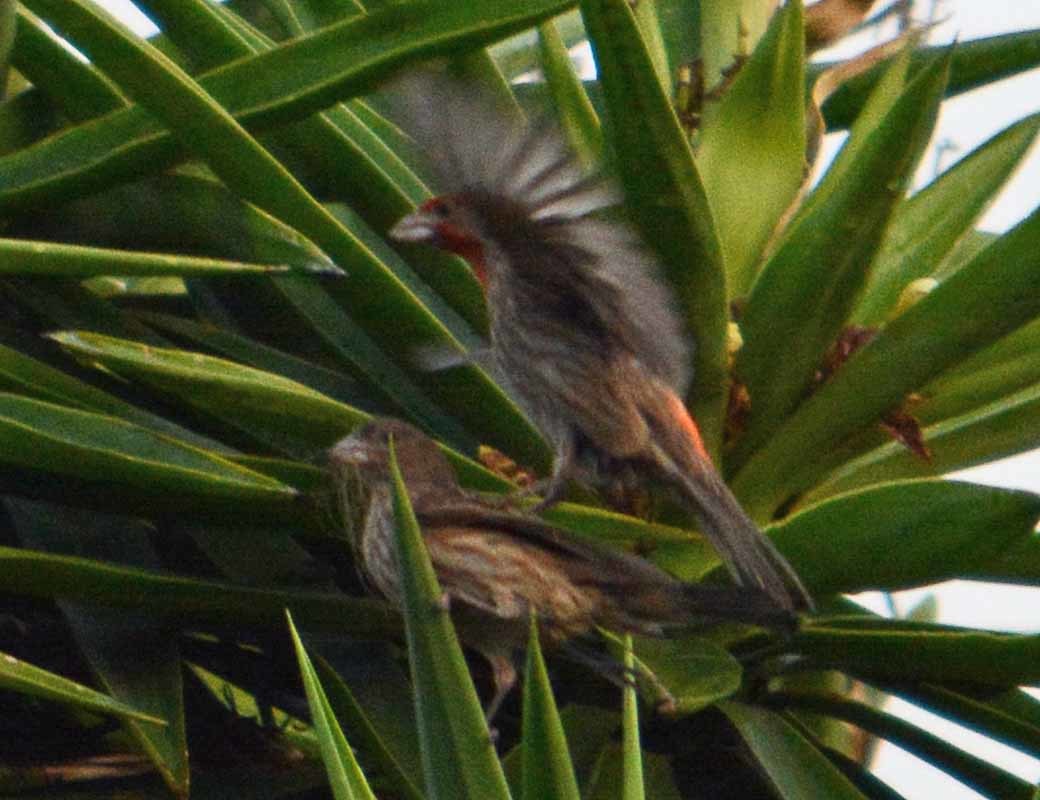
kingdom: Animalia
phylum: Chordata
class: Aves
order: Passeriformes
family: Fringillidae
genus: Haemorhous
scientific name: Haemorhous mexicanus
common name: House finch
